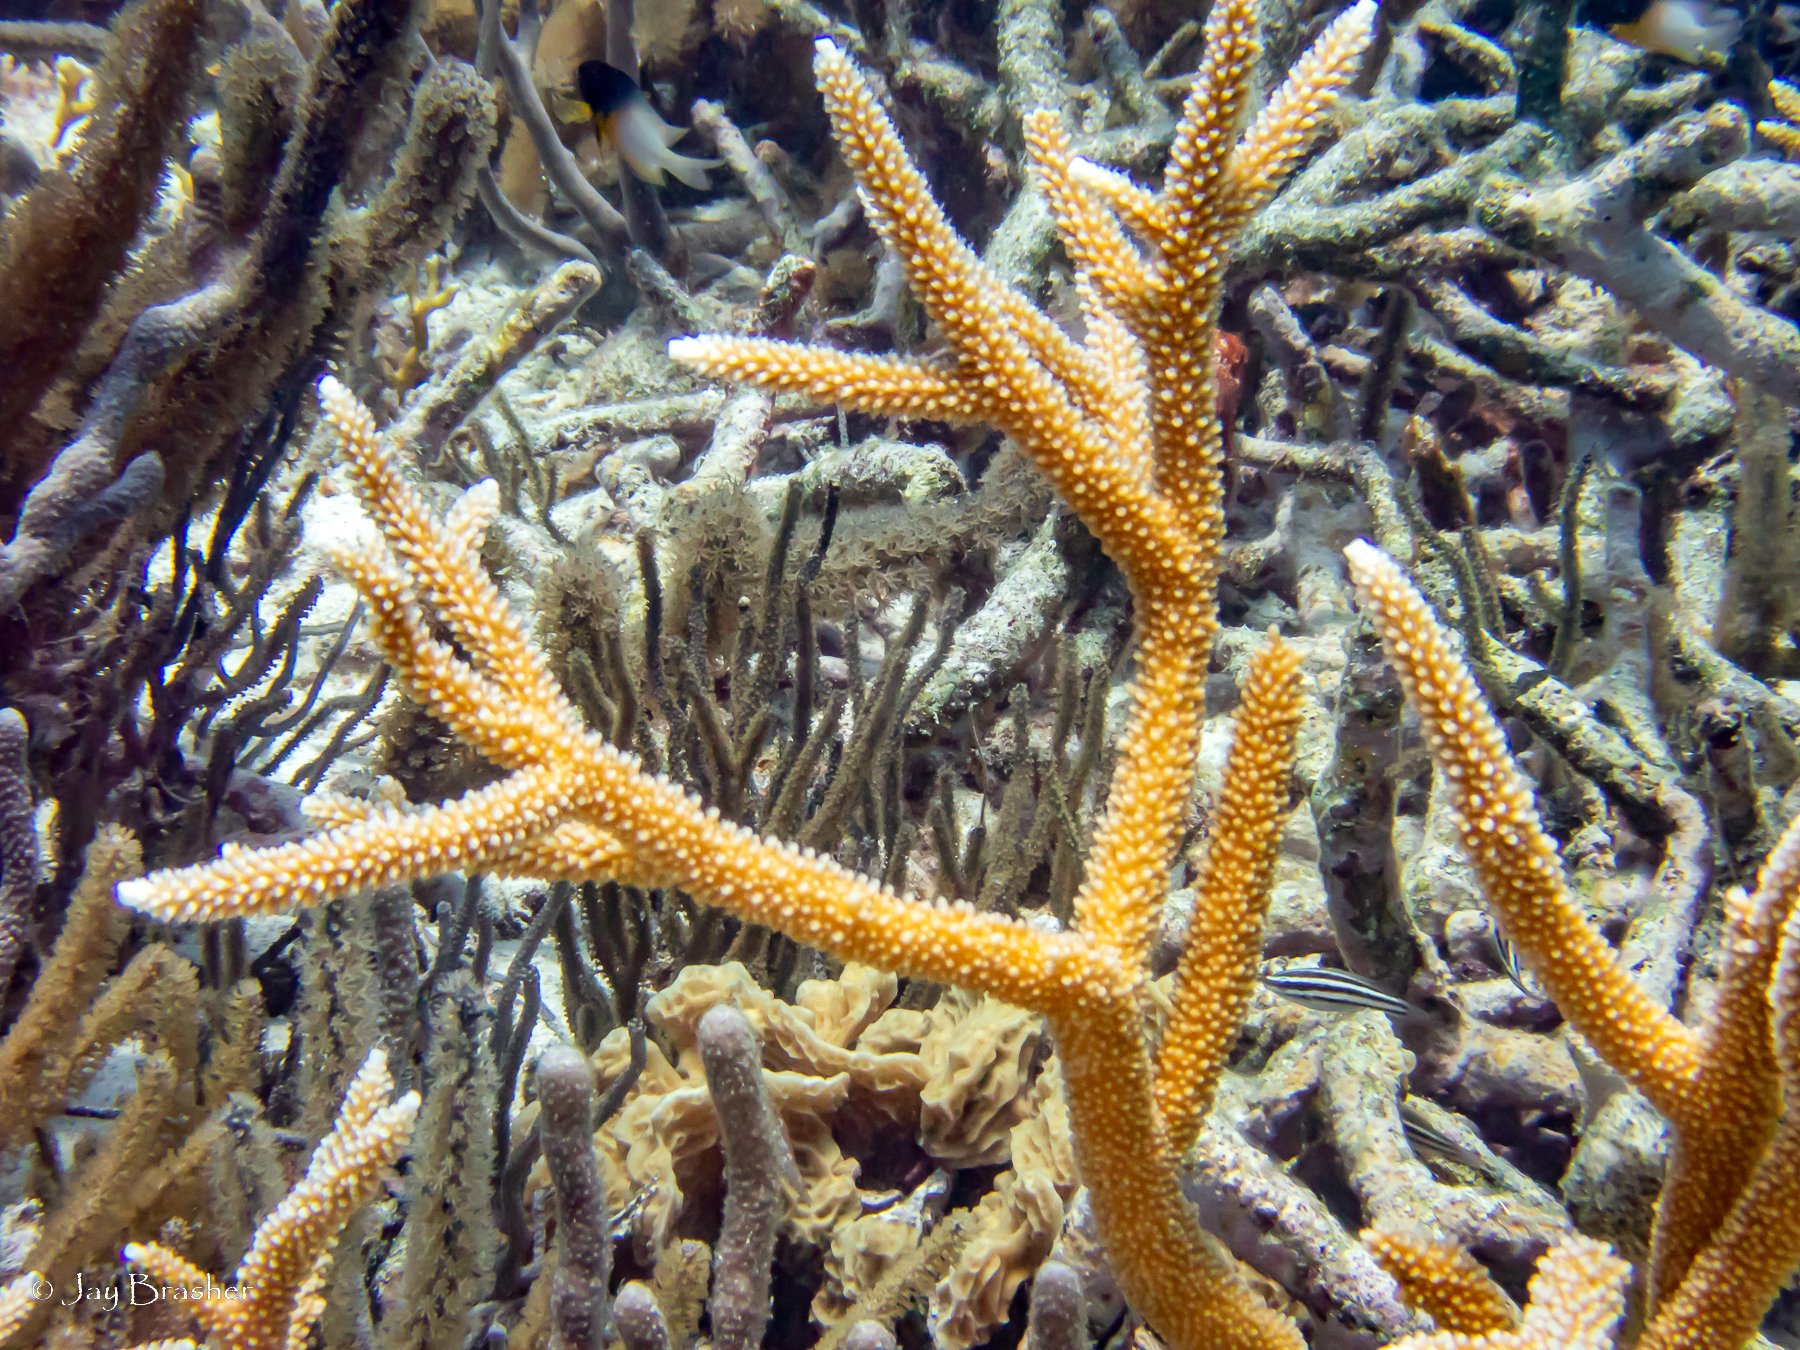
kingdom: Animalia
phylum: Cnidaria
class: Anthozoa
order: Scleractinia
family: Acroporidae
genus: Acropora
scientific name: Acropora cervicornis
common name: Staghorn coral
